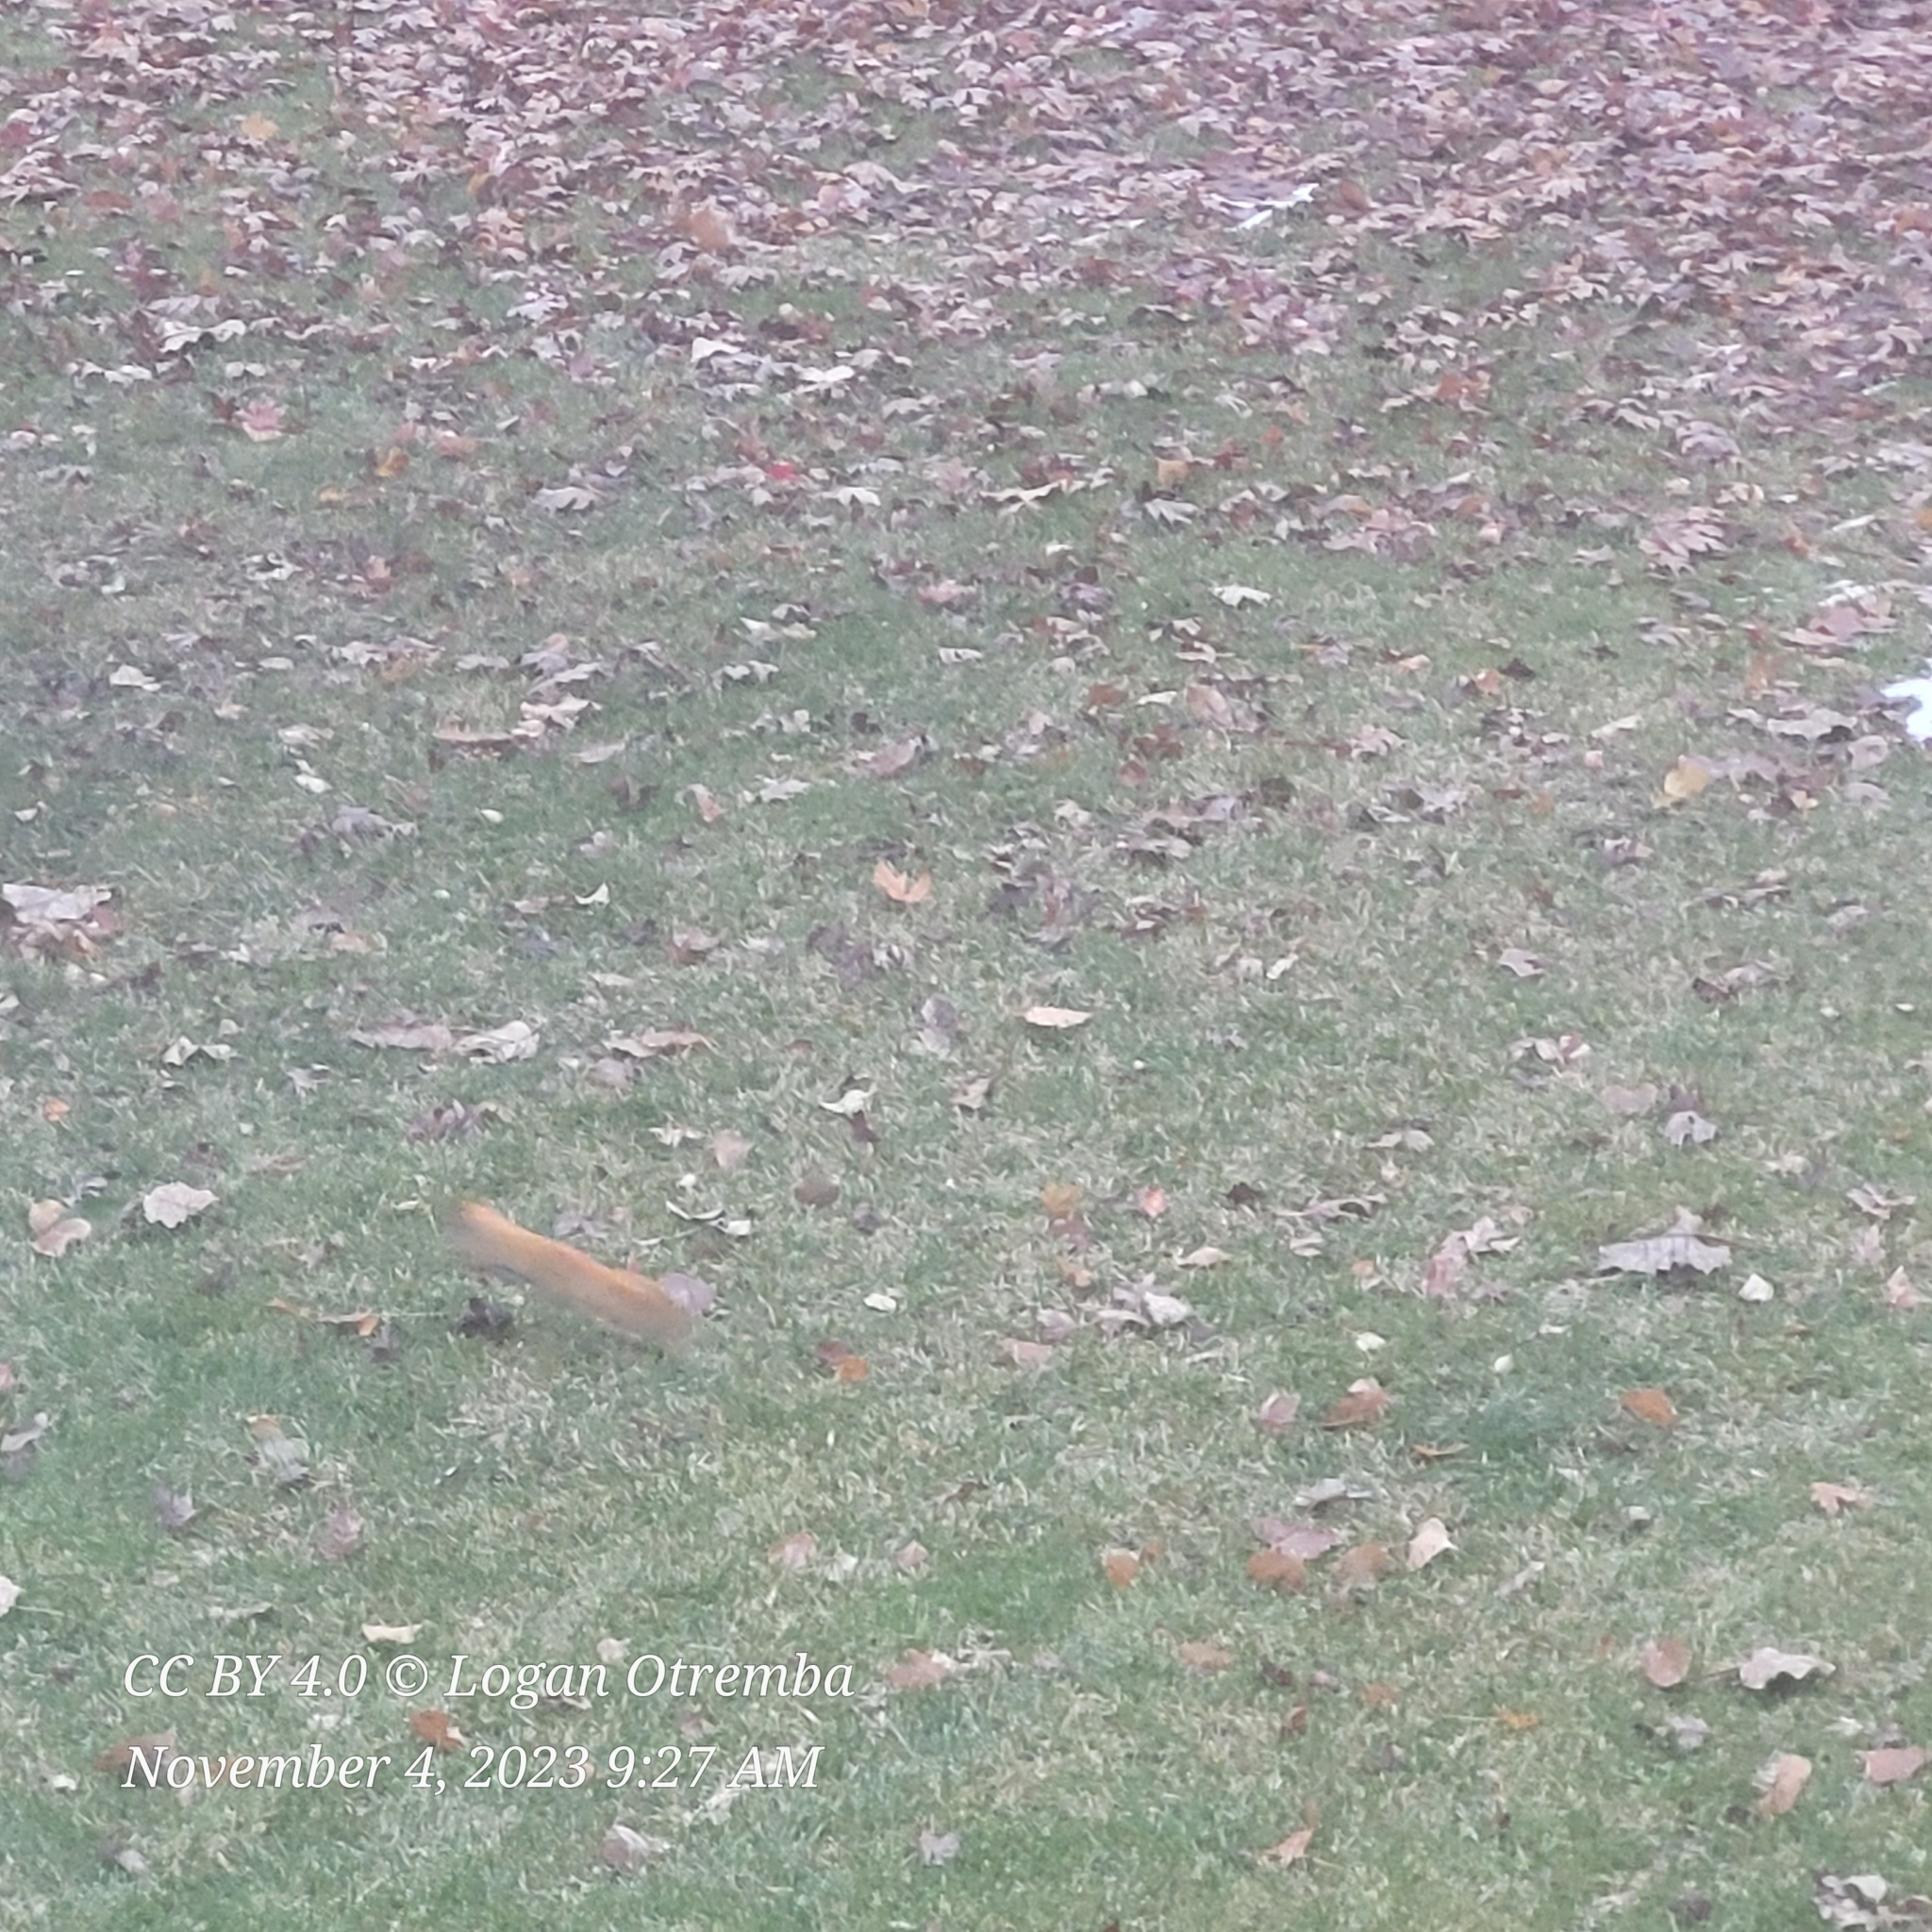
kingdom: Animalia
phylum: Chordata
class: Mammalia
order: Rodentia
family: Sciuridae
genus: Tamiasciurus
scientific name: Tamiasciurus hudsonicus
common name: Red squirrel
